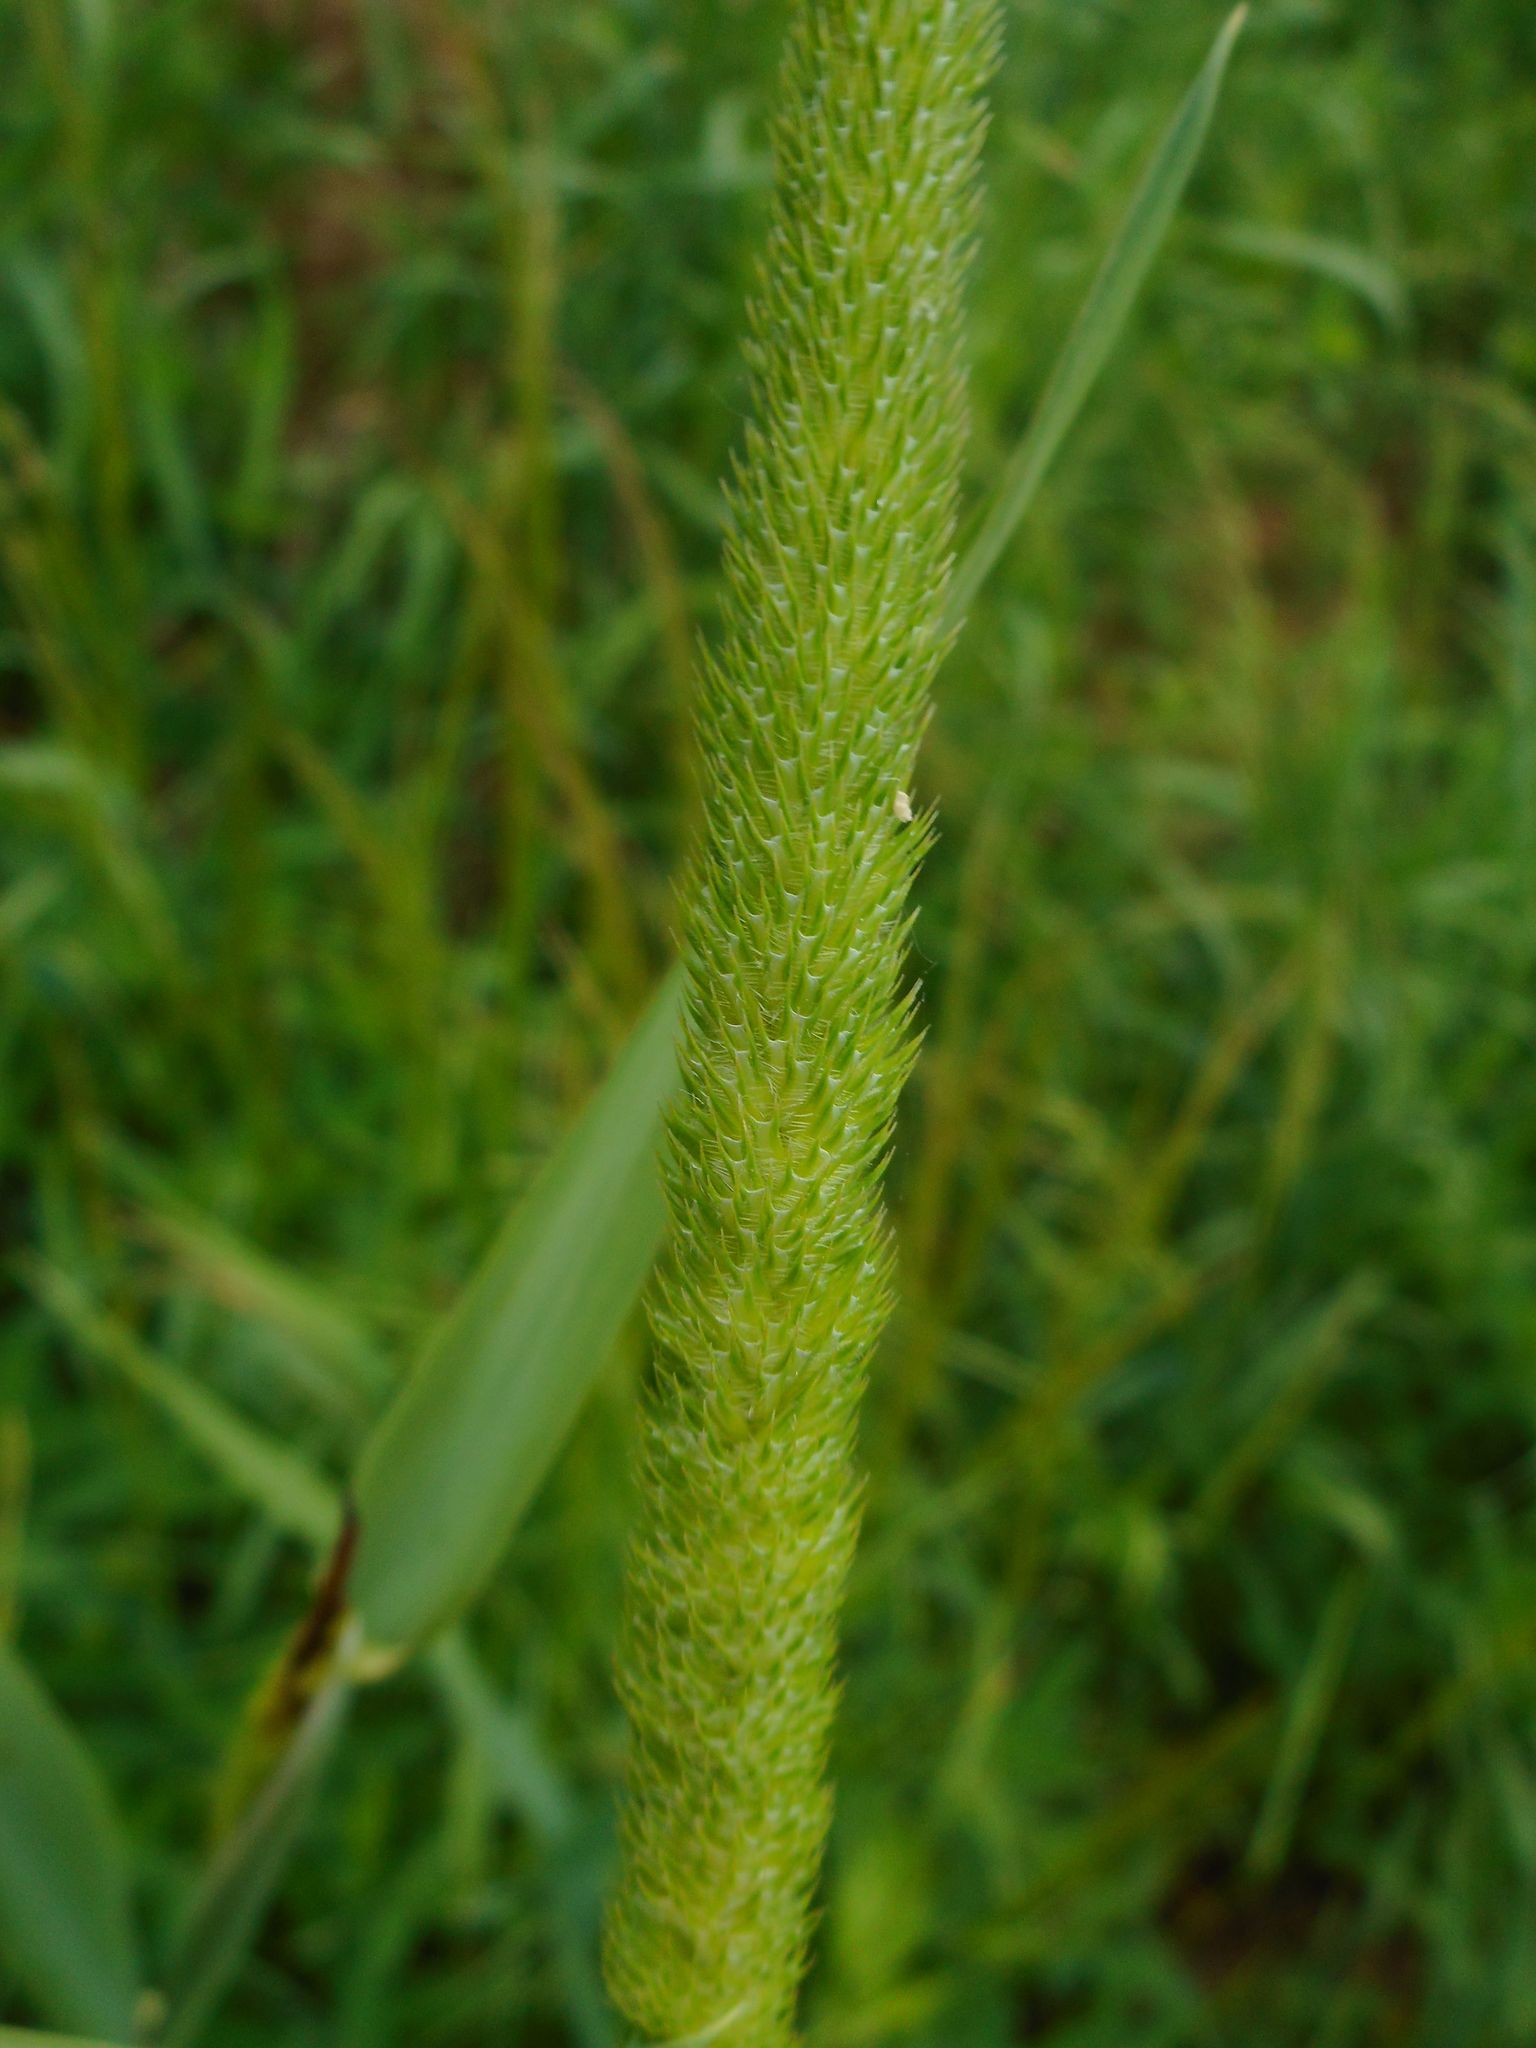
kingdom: Plantae
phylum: Tracheophyta
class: Liliopsida
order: Poales
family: Poaceae
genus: Phleum
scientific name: Phleum pratense
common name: Timothy grass
